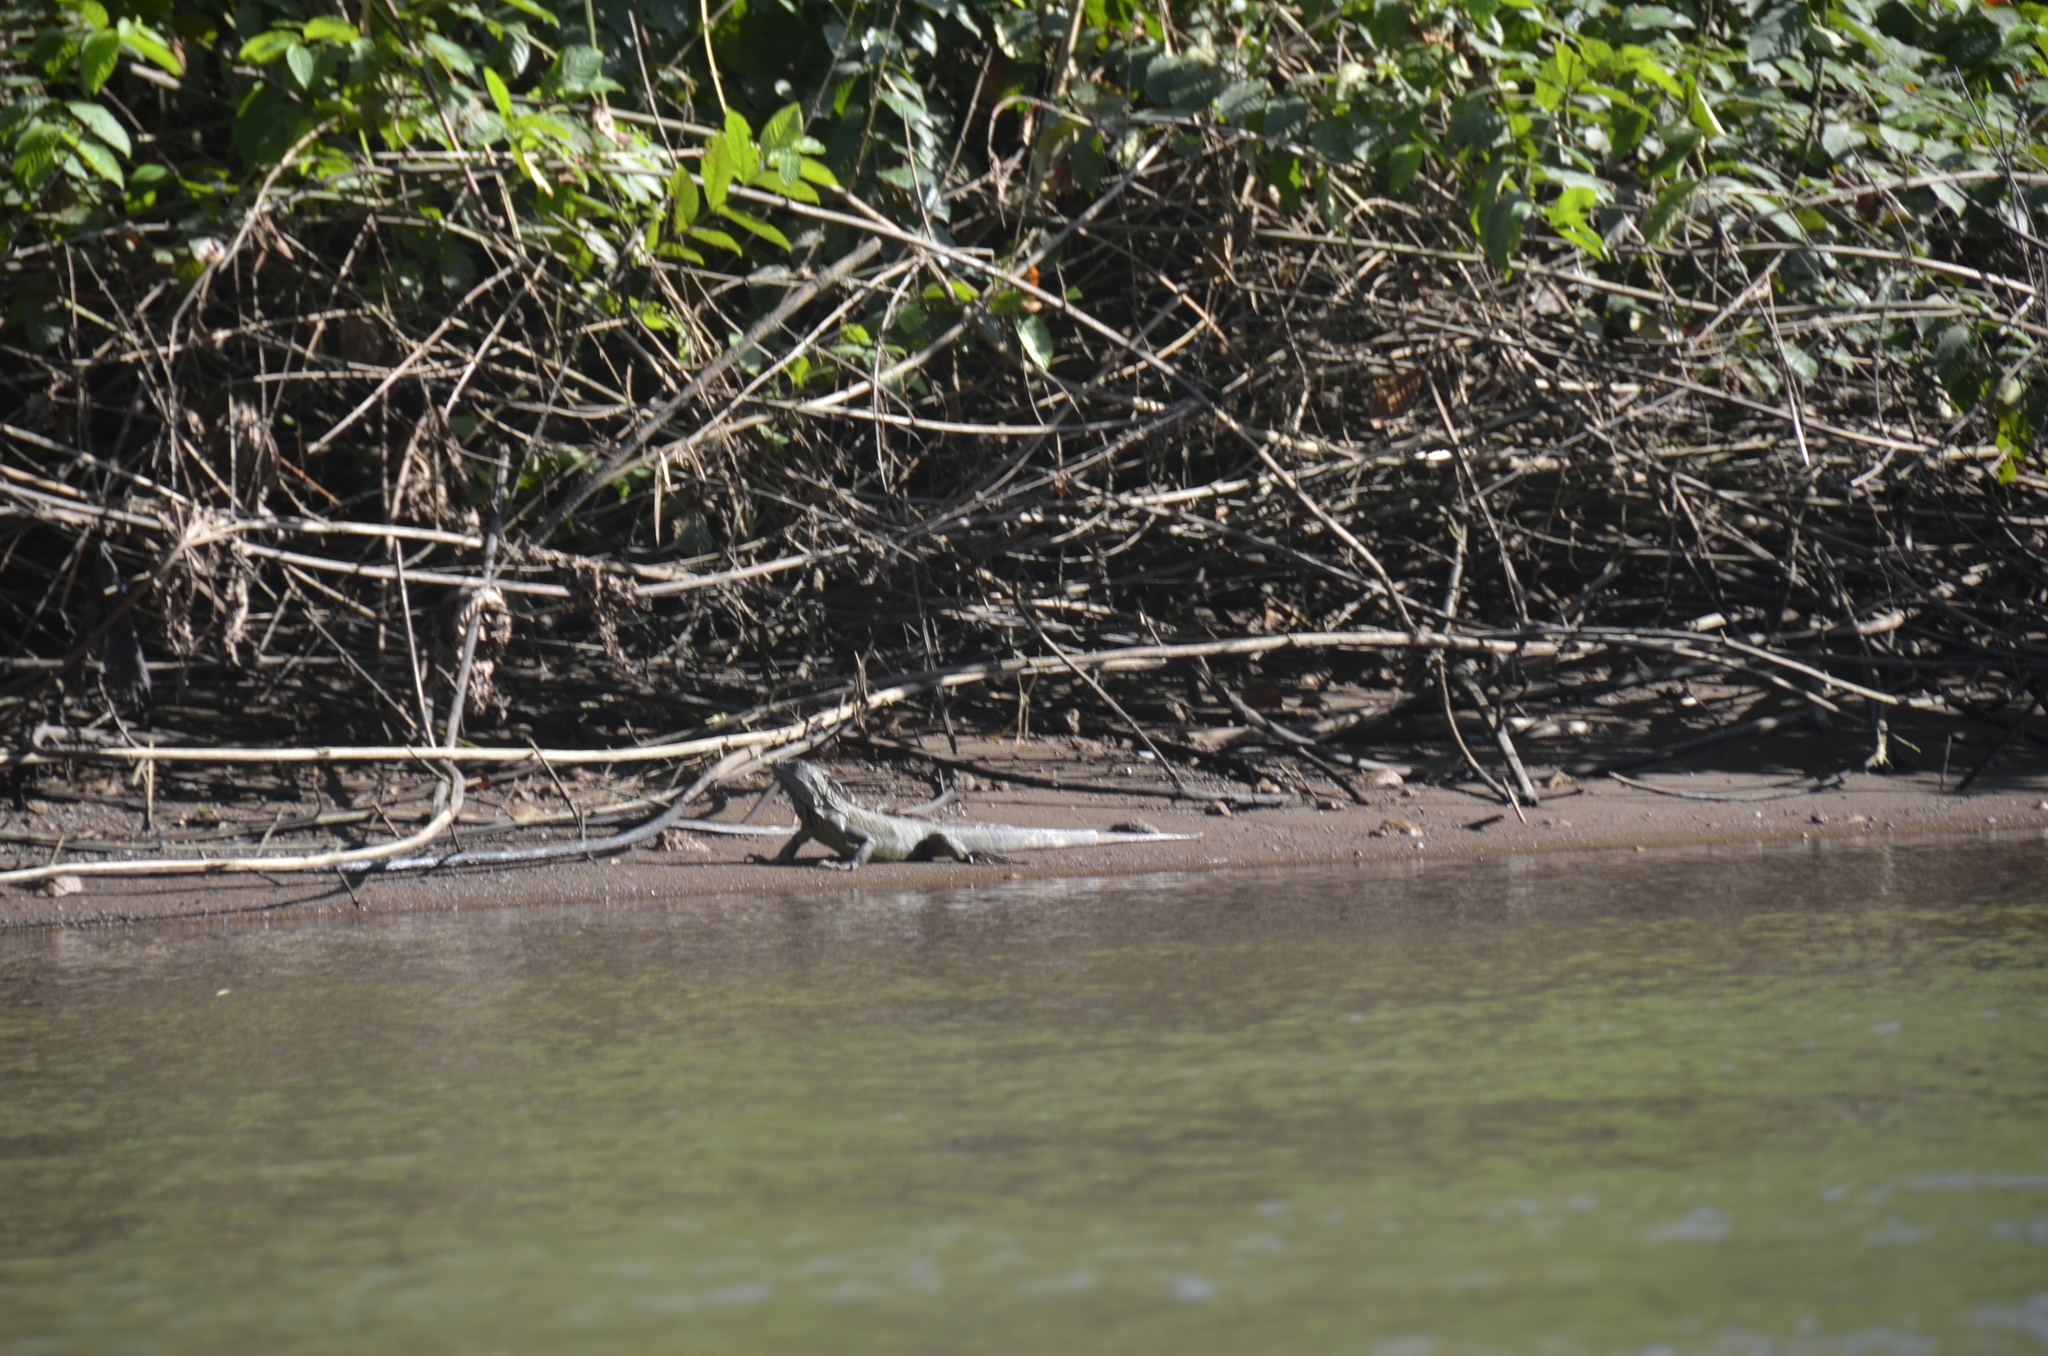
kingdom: Animalia
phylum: Chordata
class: Squamata
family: Iguanidae
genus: Iguana
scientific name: Iguana iguana
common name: Green iguana
